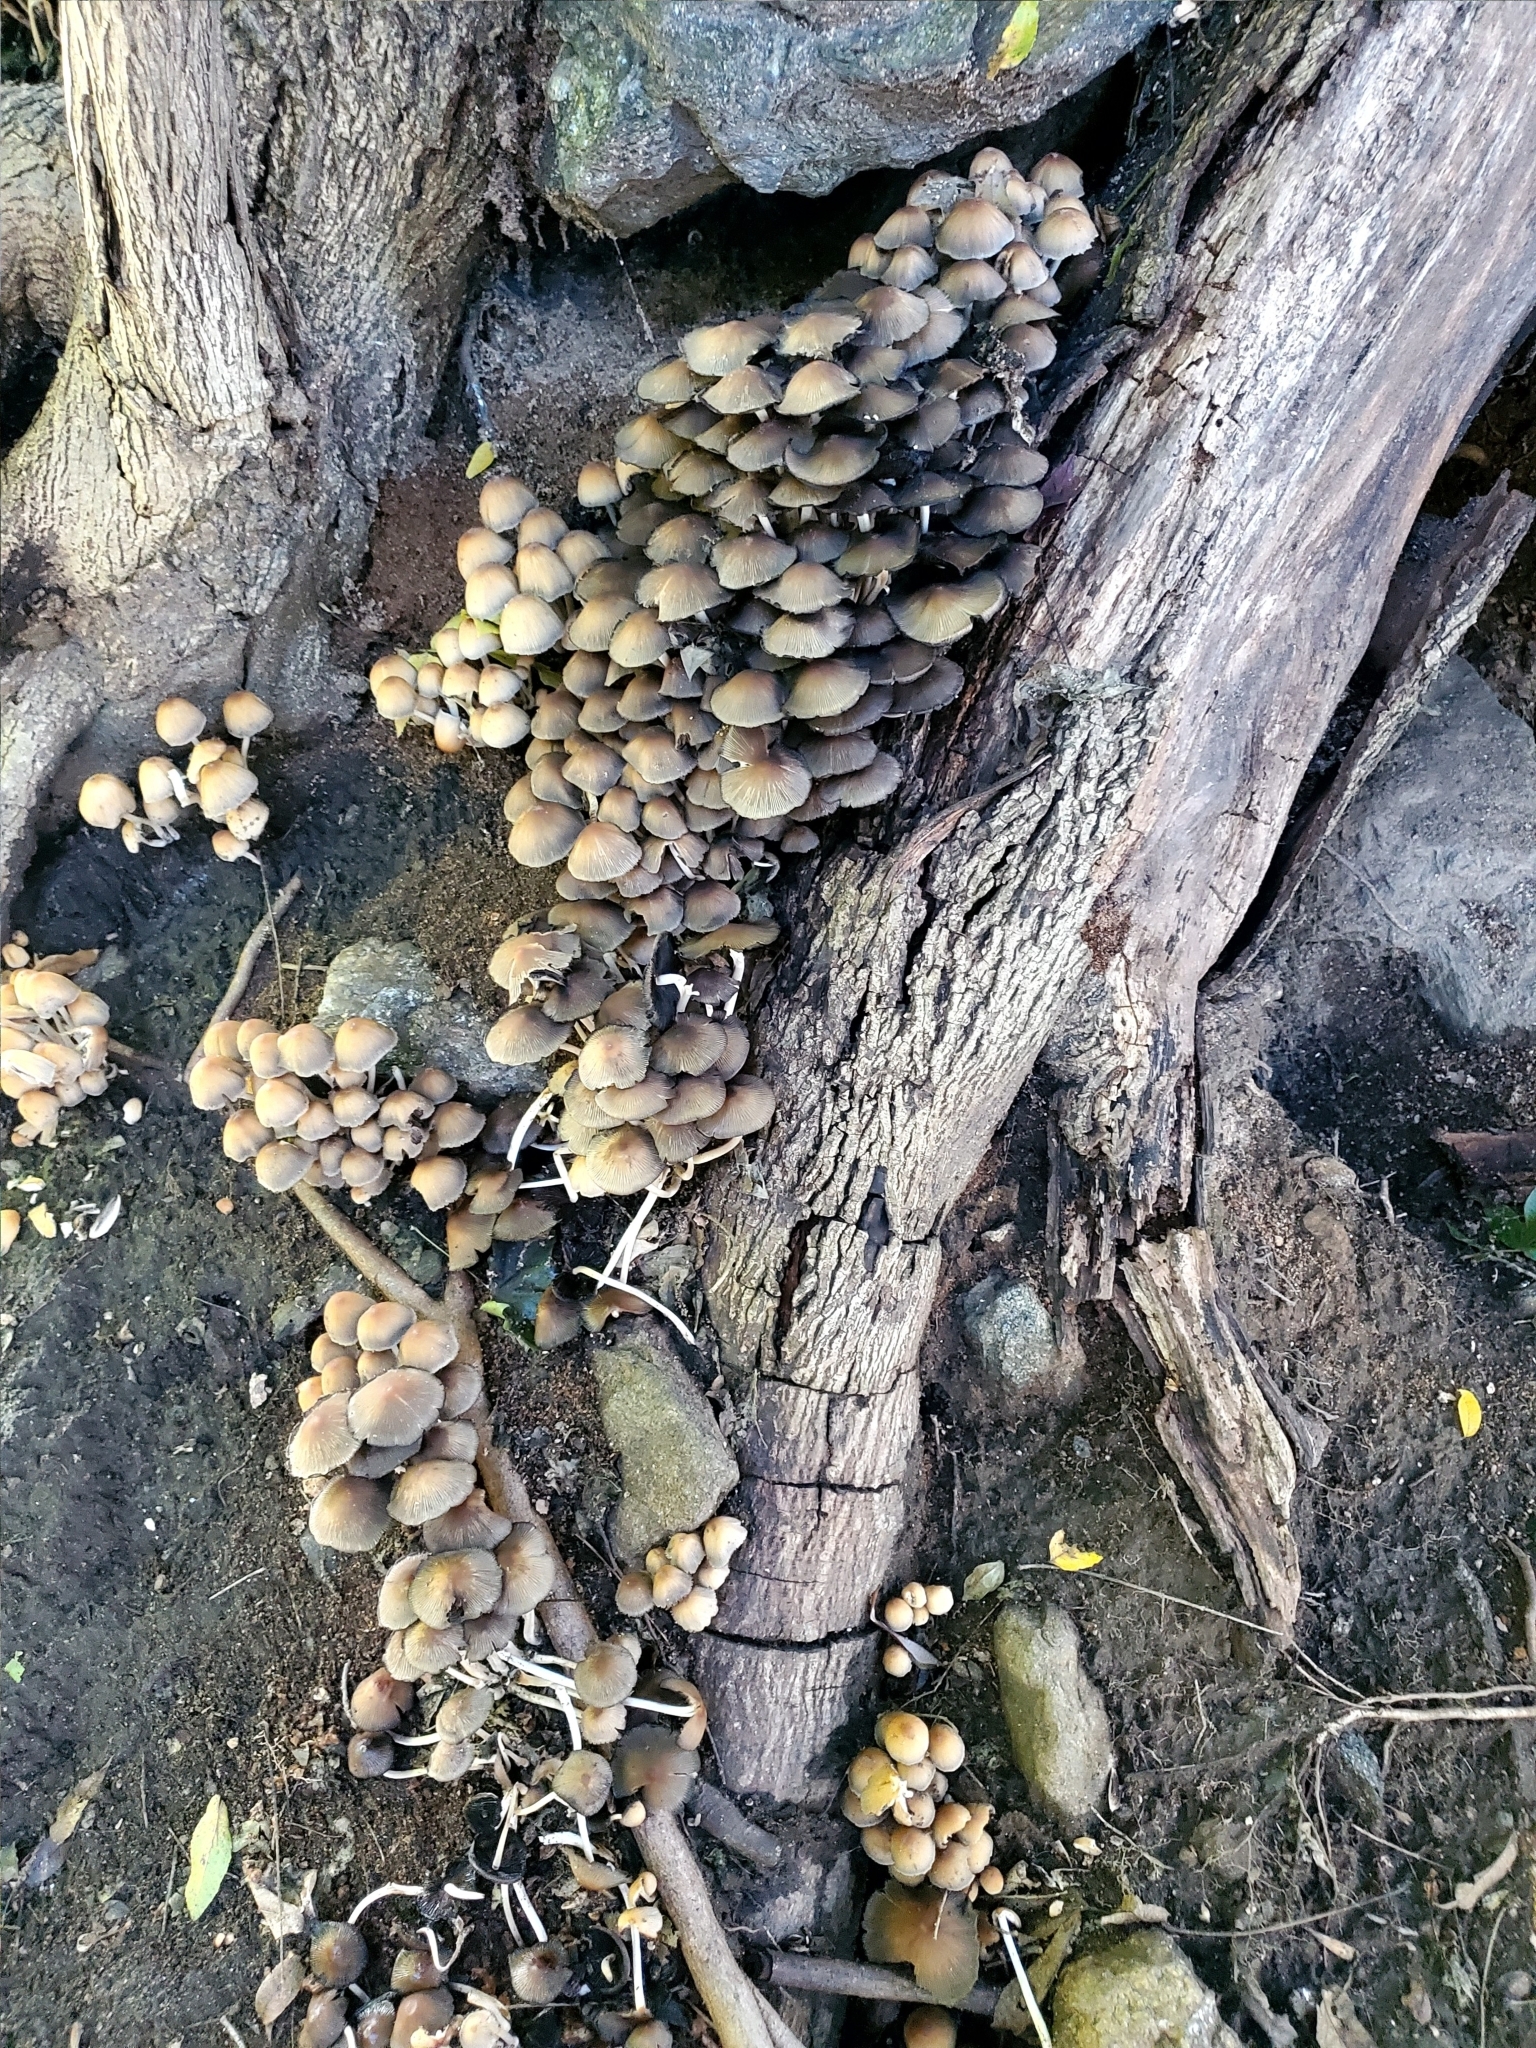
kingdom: Fungi
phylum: Basidiomycota
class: Agaricomycetes
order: Agaricales
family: Psathyrellaceae
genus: Coprinellus
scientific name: Coprinellus micaceus
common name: Glistening ink-cap
